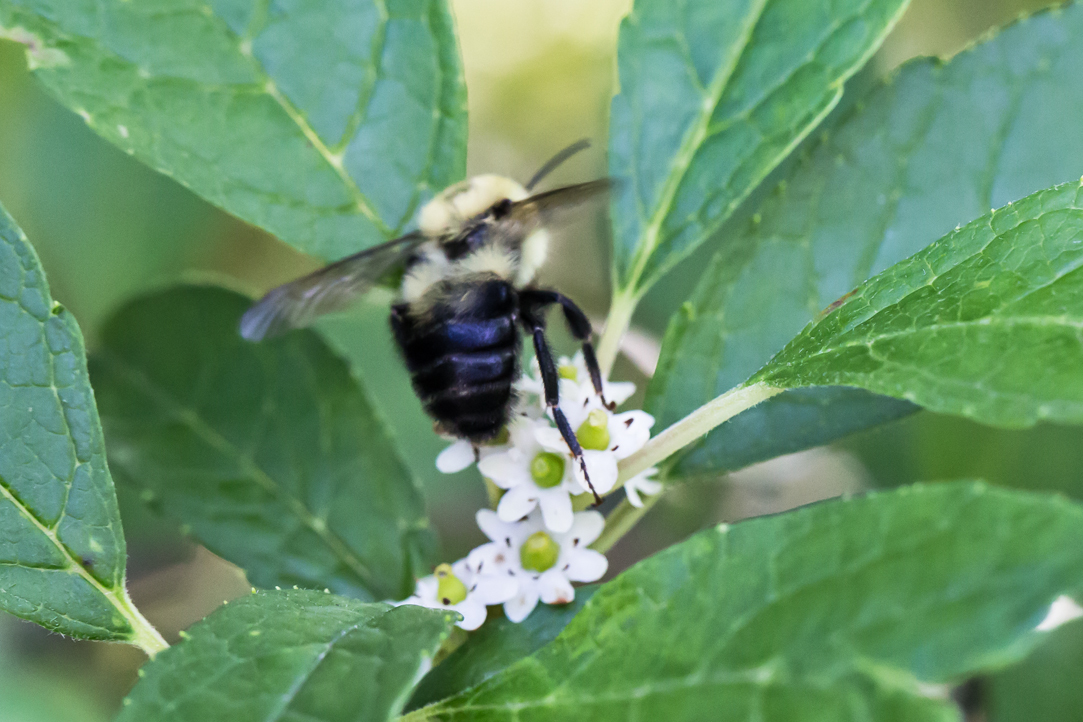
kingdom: Animalia
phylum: Arthropoda
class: Insecta
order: Hymenoptera
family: Apidae
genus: Bombus
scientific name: Bombus bimaculatus
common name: Two-spotted bumble bee
